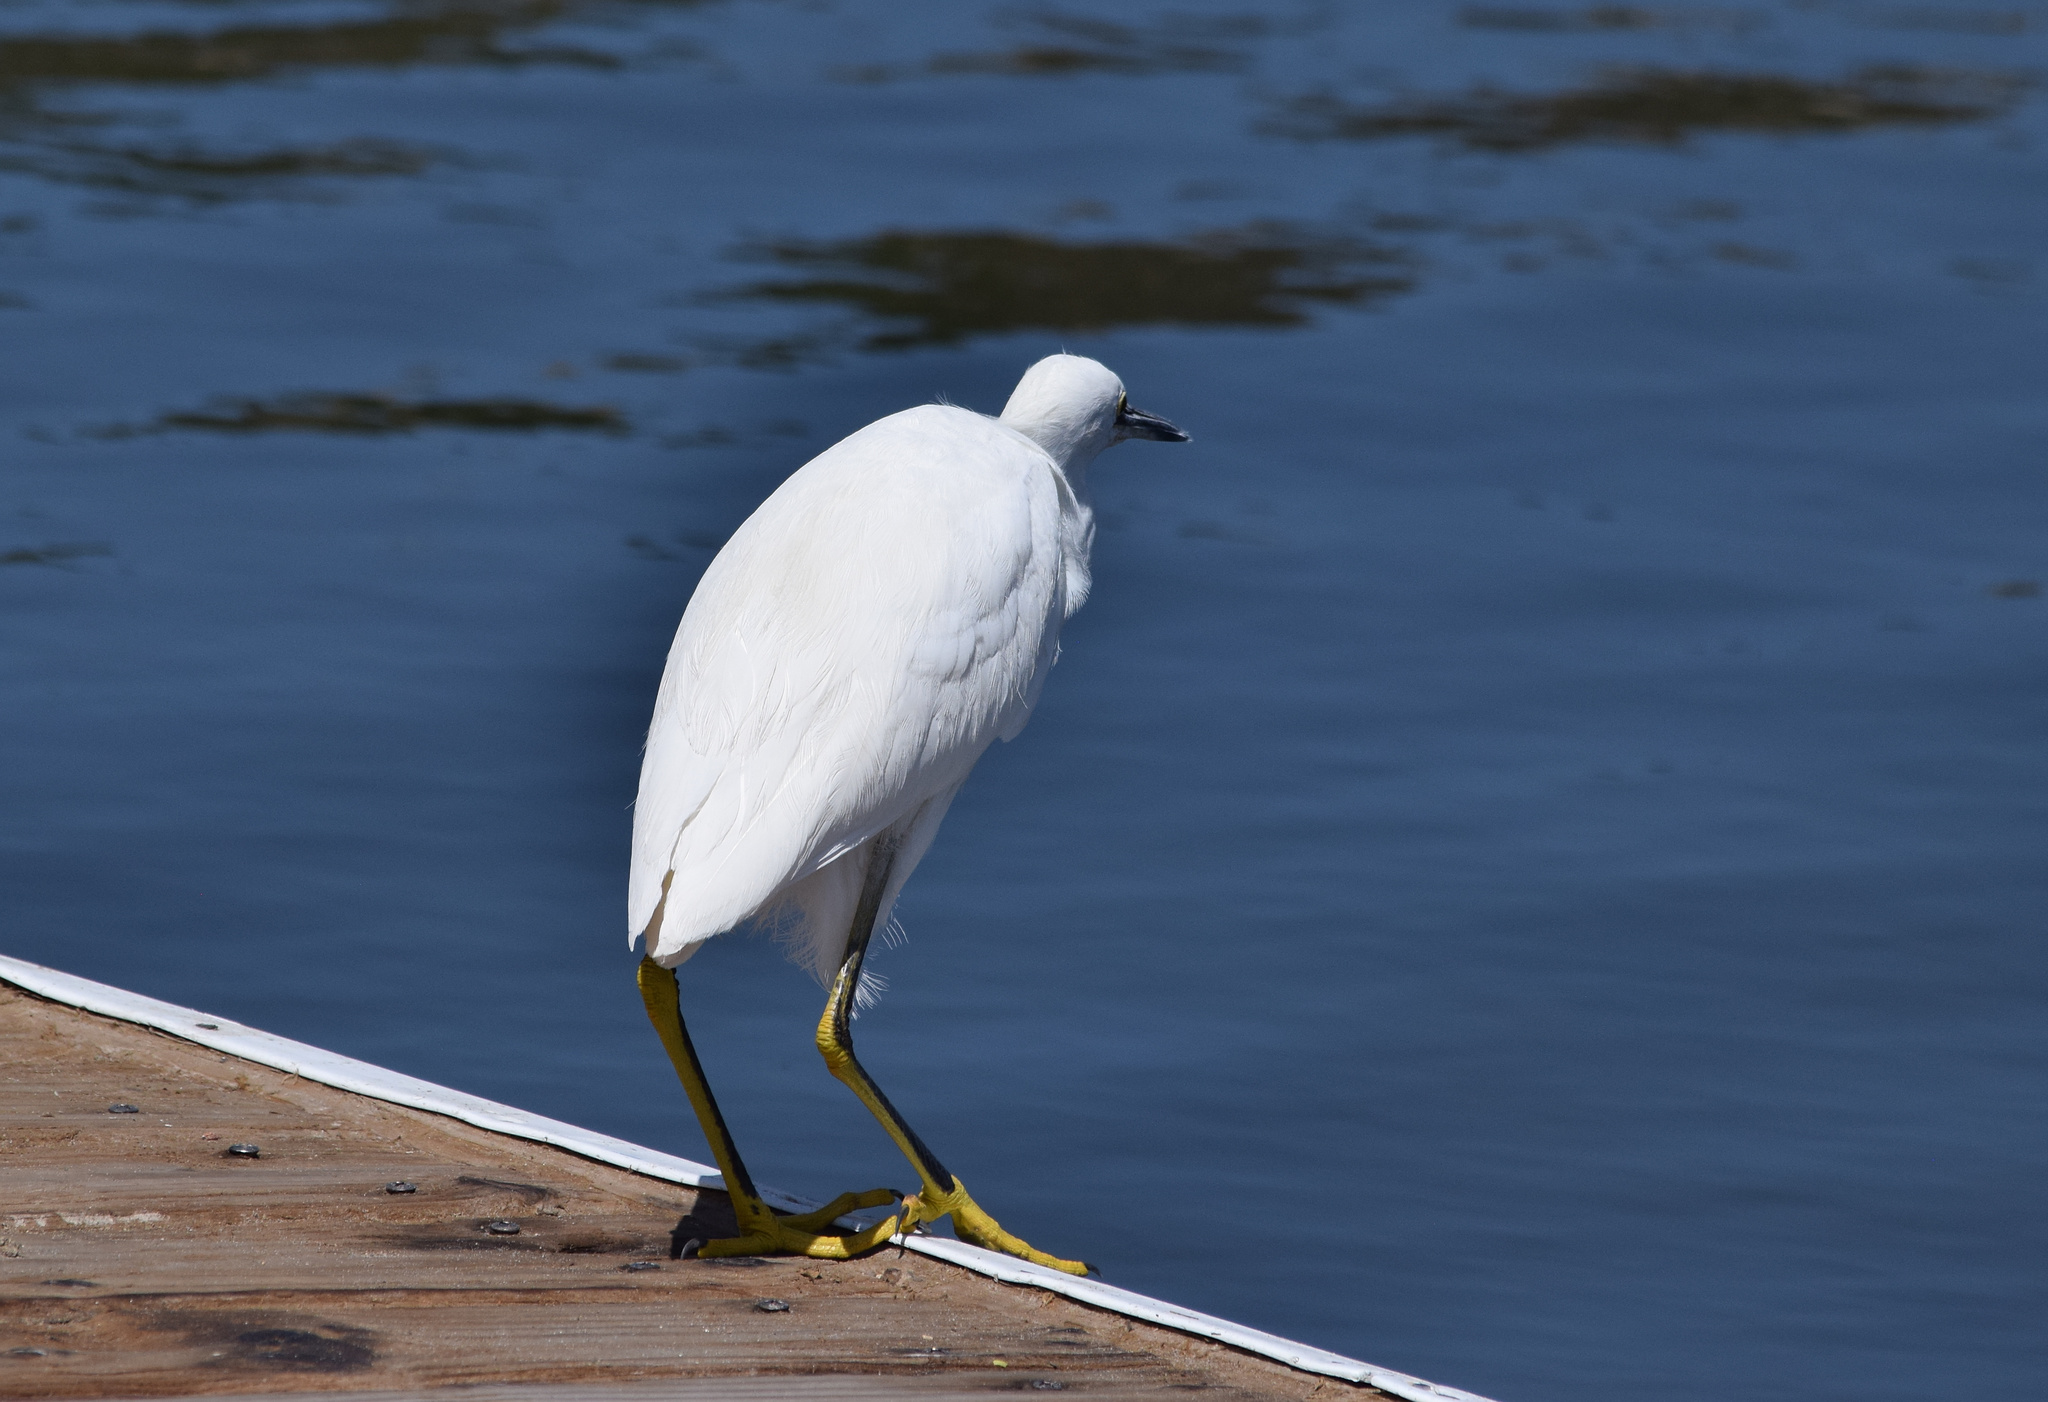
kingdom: Animalia
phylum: Chordata
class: Aves
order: Pelecaniformes
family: Ardeidae
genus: Egretta
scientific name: Egretta thula
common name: Snowy egret
